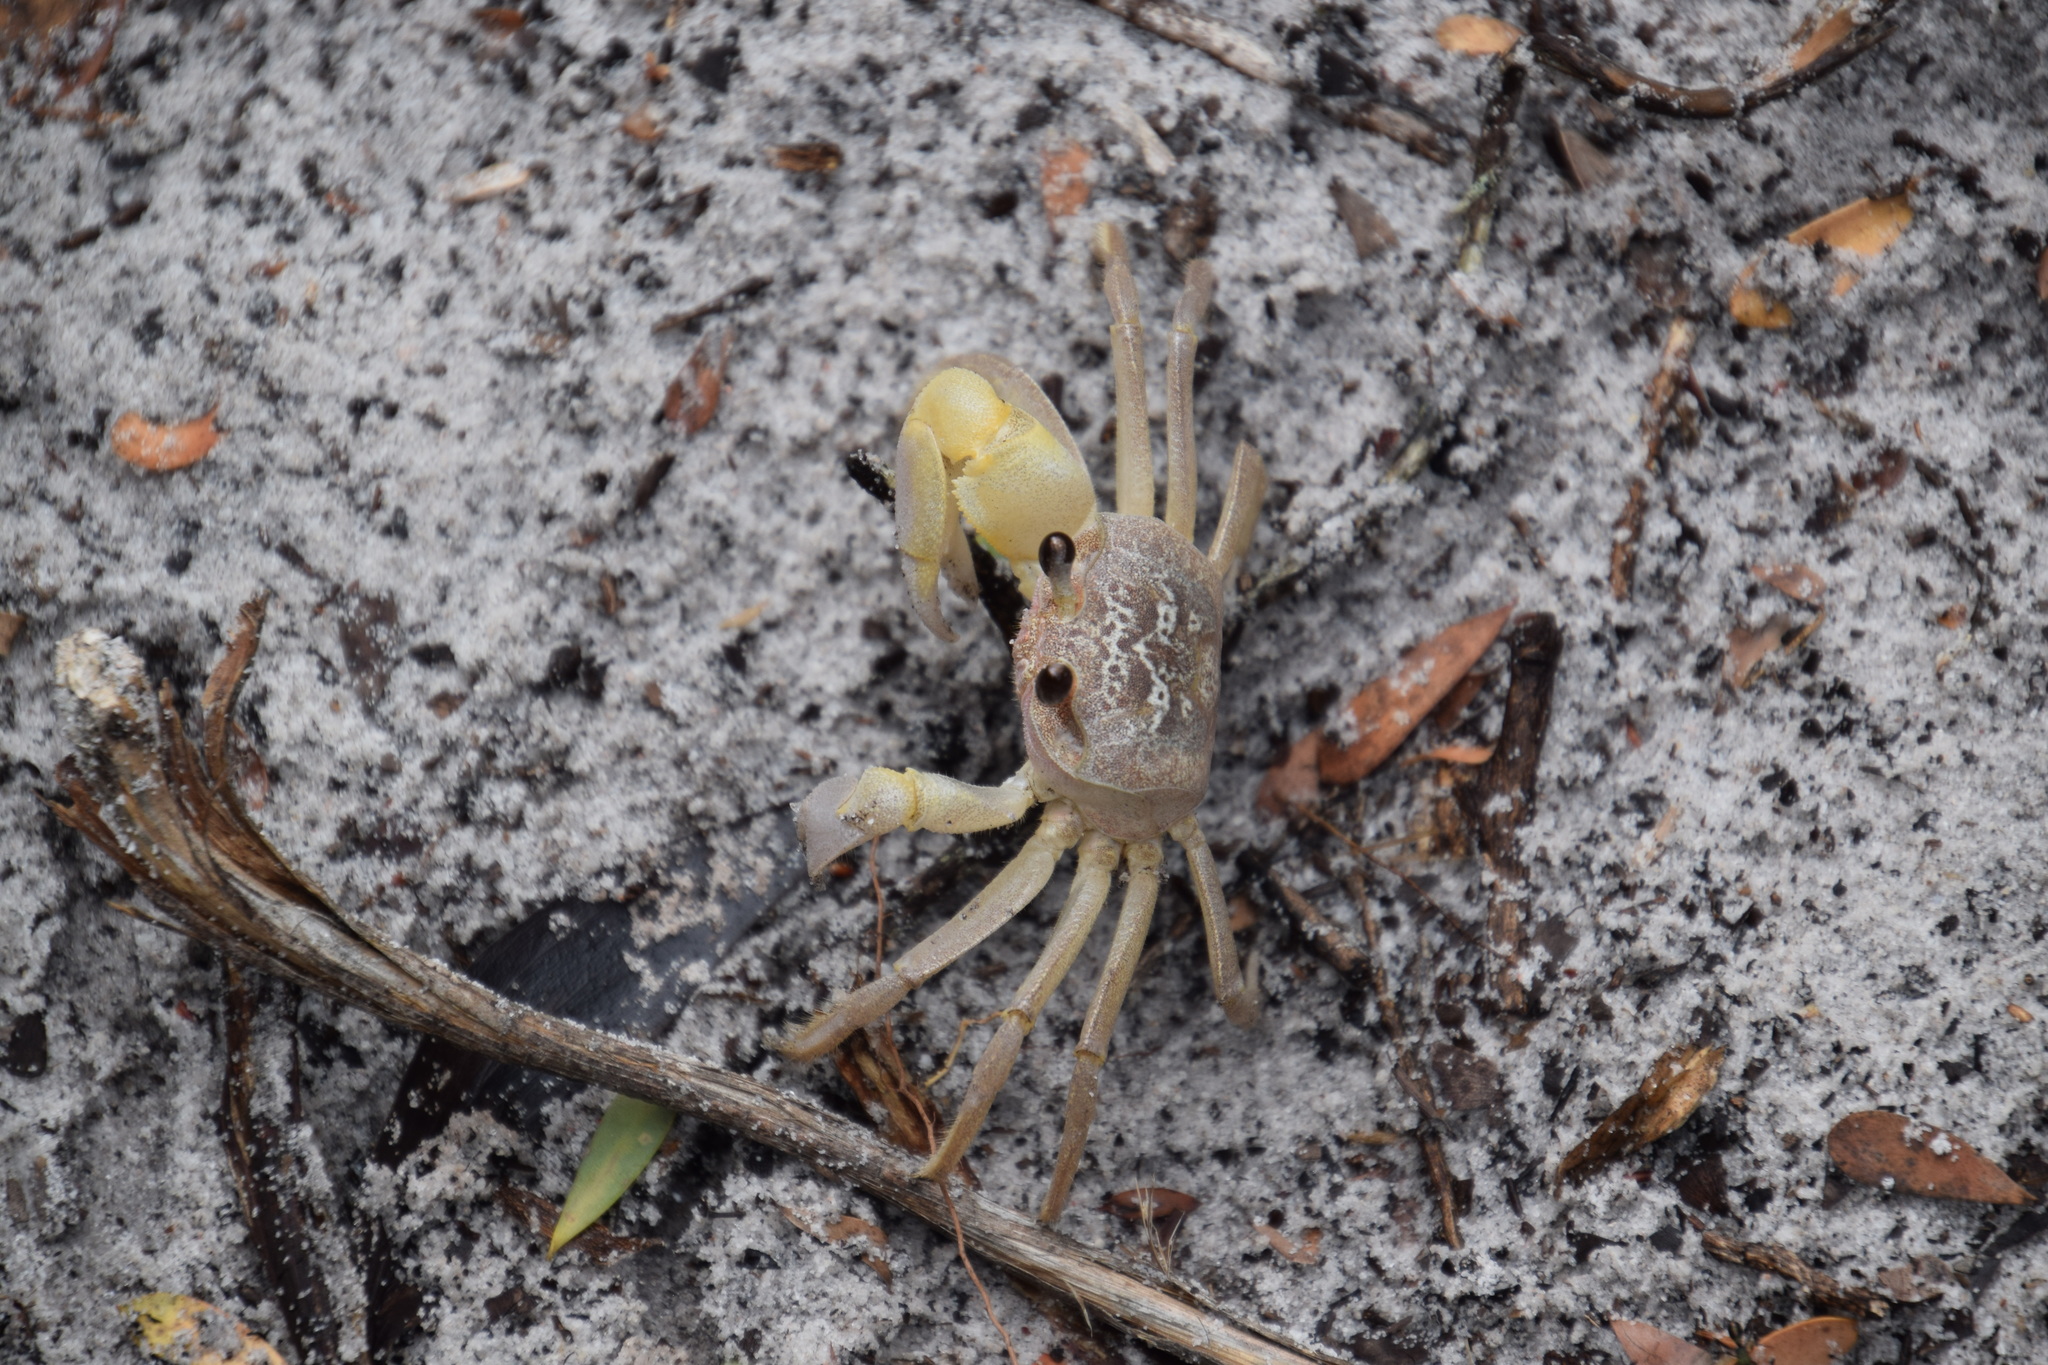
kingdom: Animalia
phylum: Arthropoda
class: Malacostraca
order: Decapoda
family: Ocypodidae
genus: Ocypode
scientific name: Ocypode cordimana
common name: Smooth-eyed ghost crab
